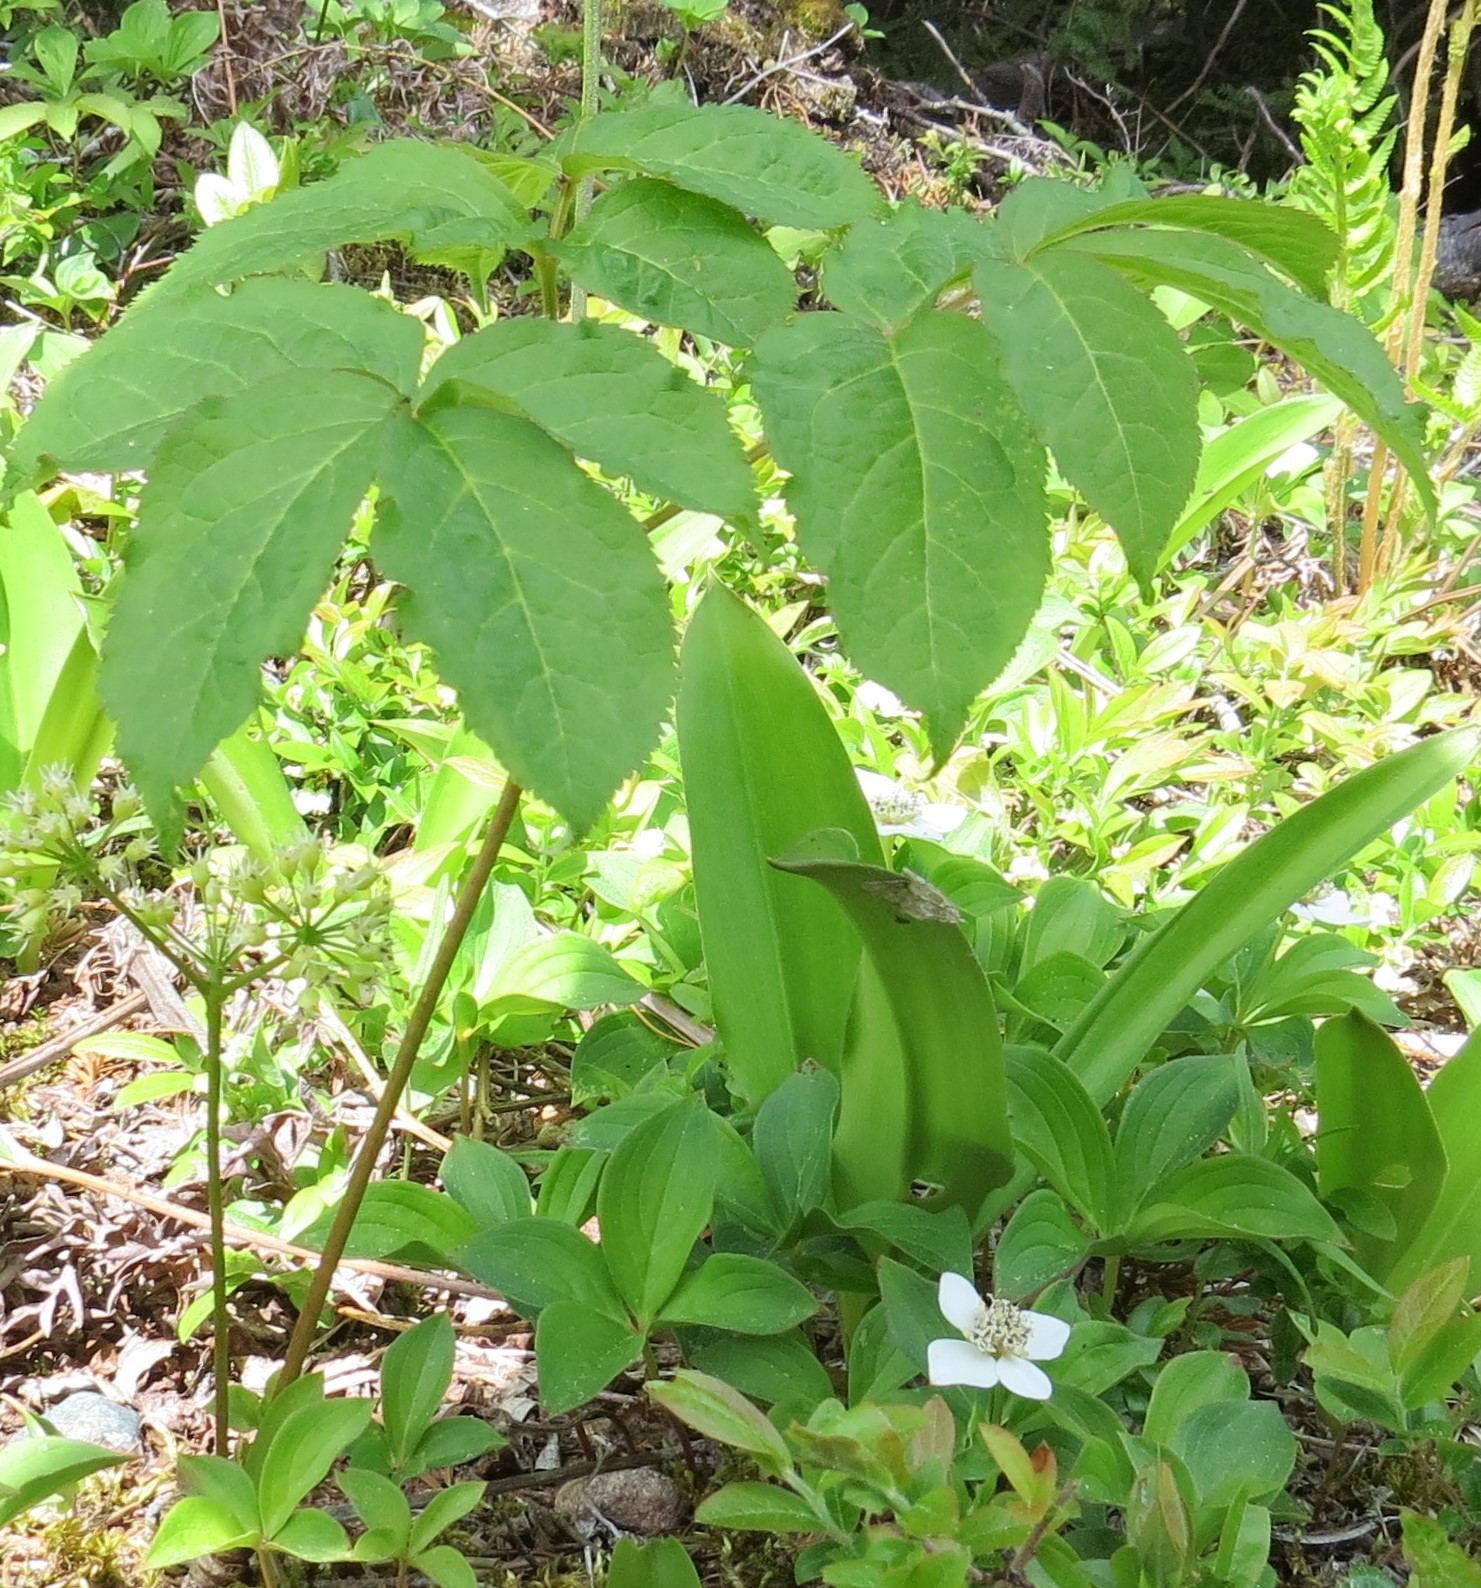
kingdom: Plantae
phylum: Tracheophyta
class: Magnoliopsida
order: Apiales
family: Araliaceae
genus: Aralia
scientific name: Aralia nudicaulis
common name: Wild sarsaparilla
